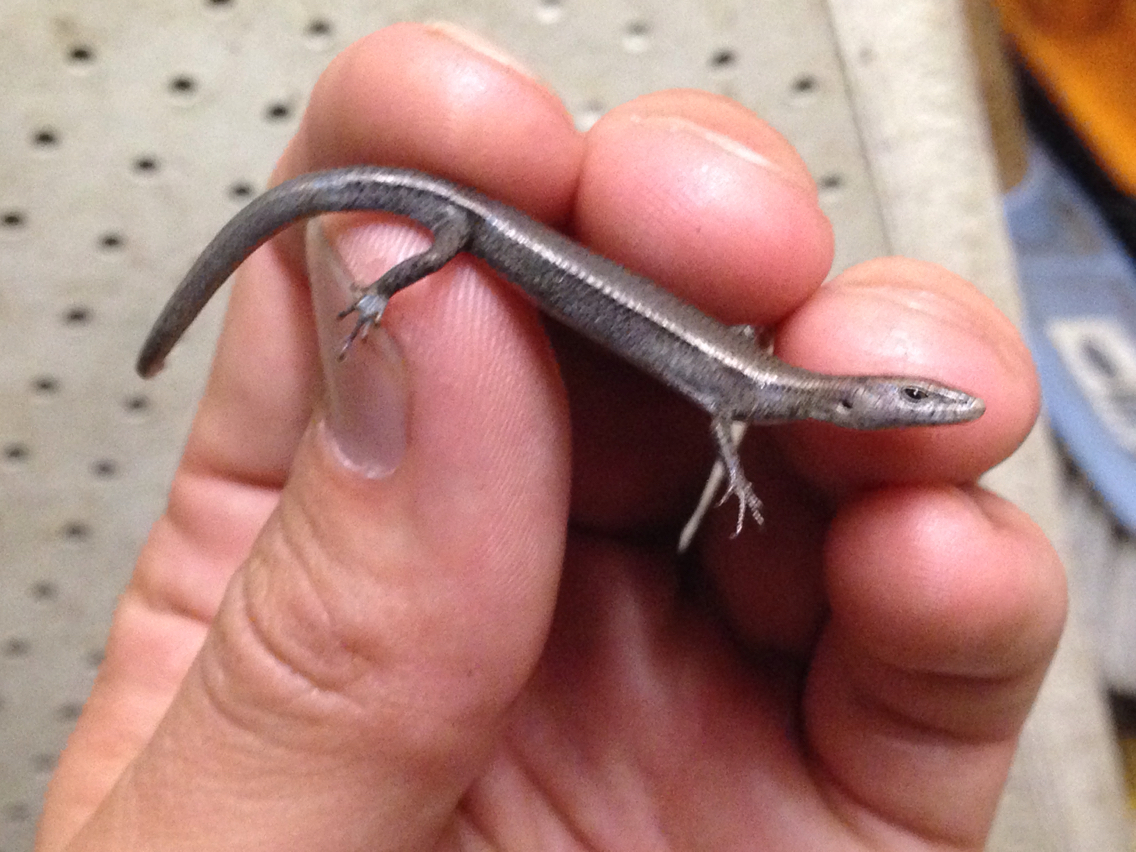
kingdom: Animalia
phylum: Chordata
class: Squamata
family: Scincidae
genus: Lampropholis
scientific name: Lampropholis delicata
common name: Plague skink
